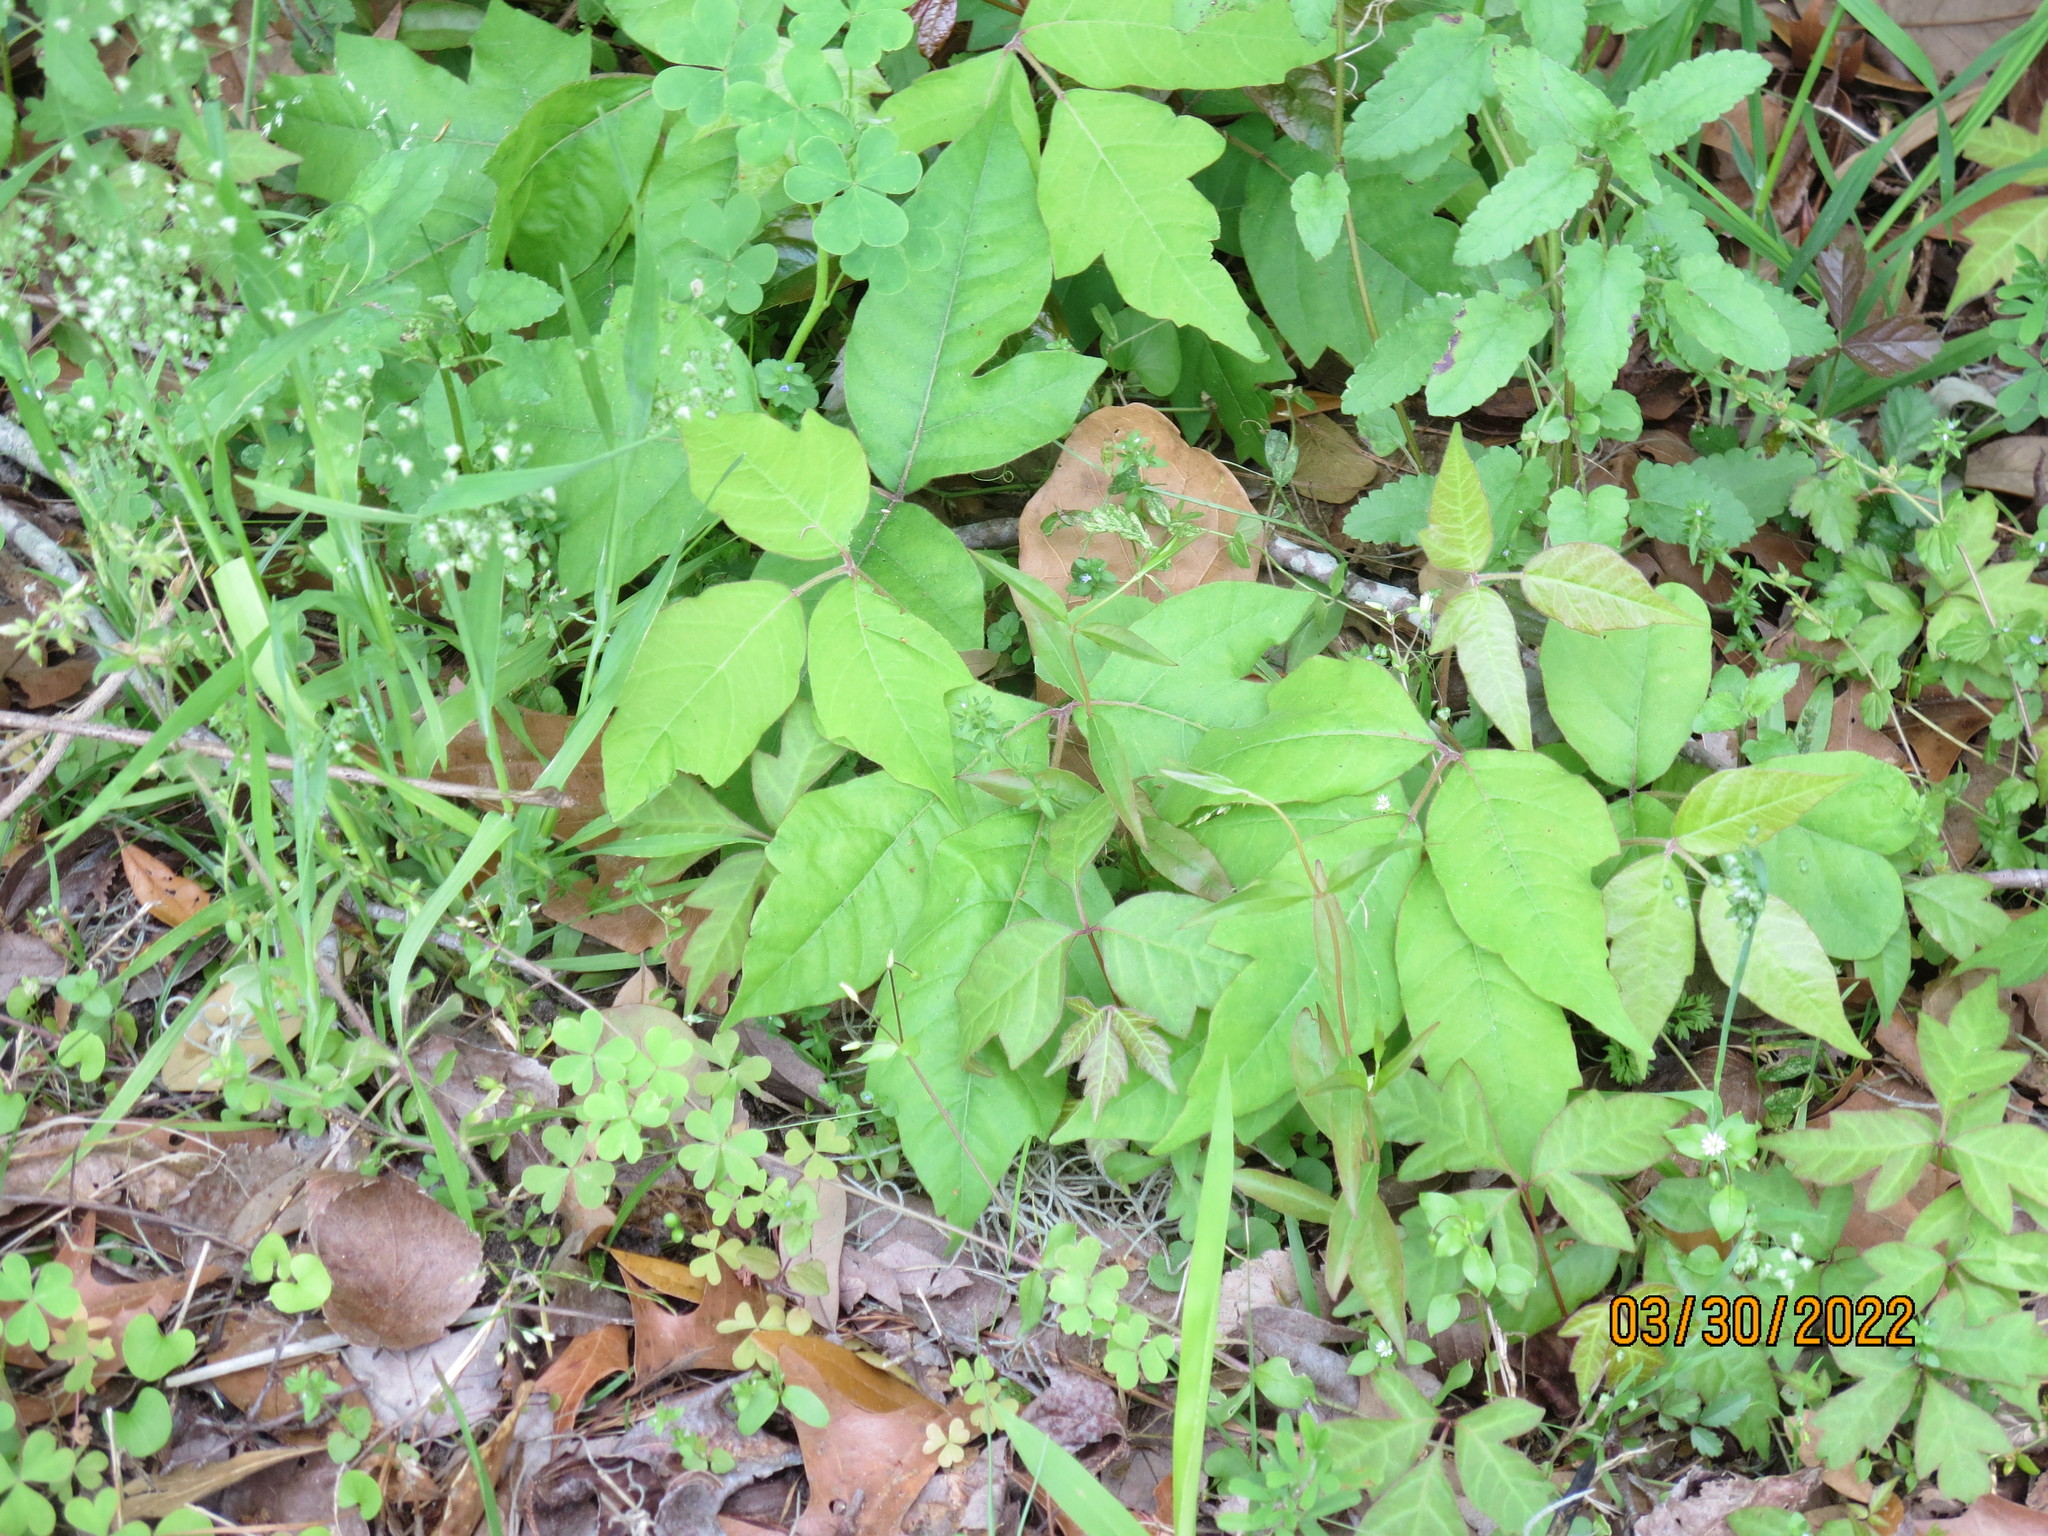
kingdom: Plantae
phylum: Tracheophyta
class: Magnoliopsida
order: Sapindales
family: Anacardiaceae
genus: Toxicodendron
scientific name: Toxicodendron radicans
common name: Poison ivy
